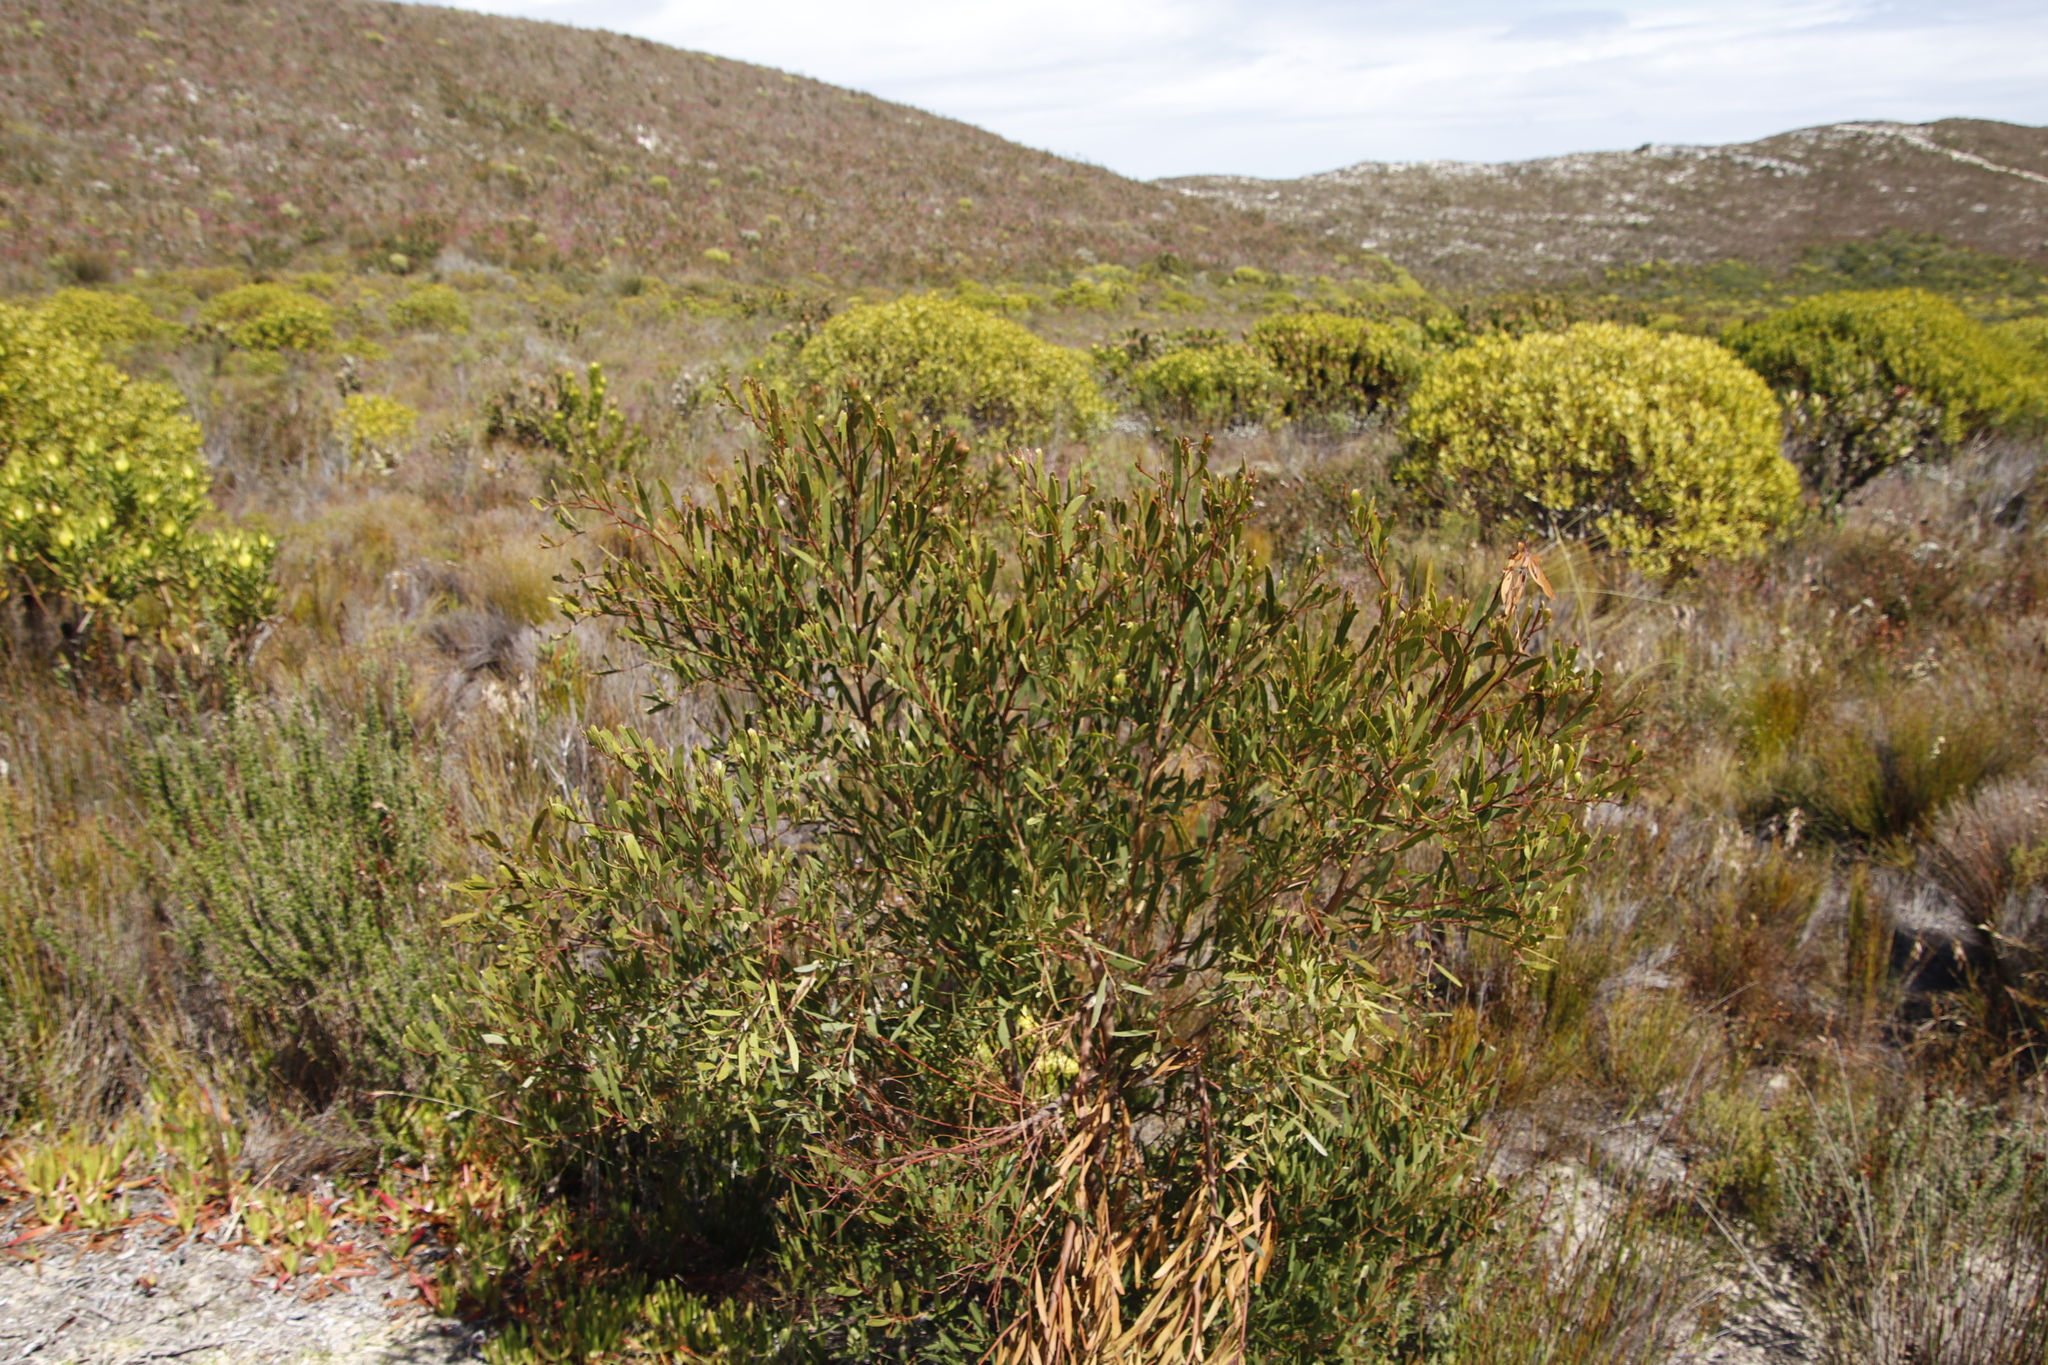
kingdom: Plantae
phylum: Tracheophyta
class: Magnoliopsida
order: Fabales
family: Fabaceae
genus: Acacia
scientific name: Acacia cyclops
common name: Coastal wattle
